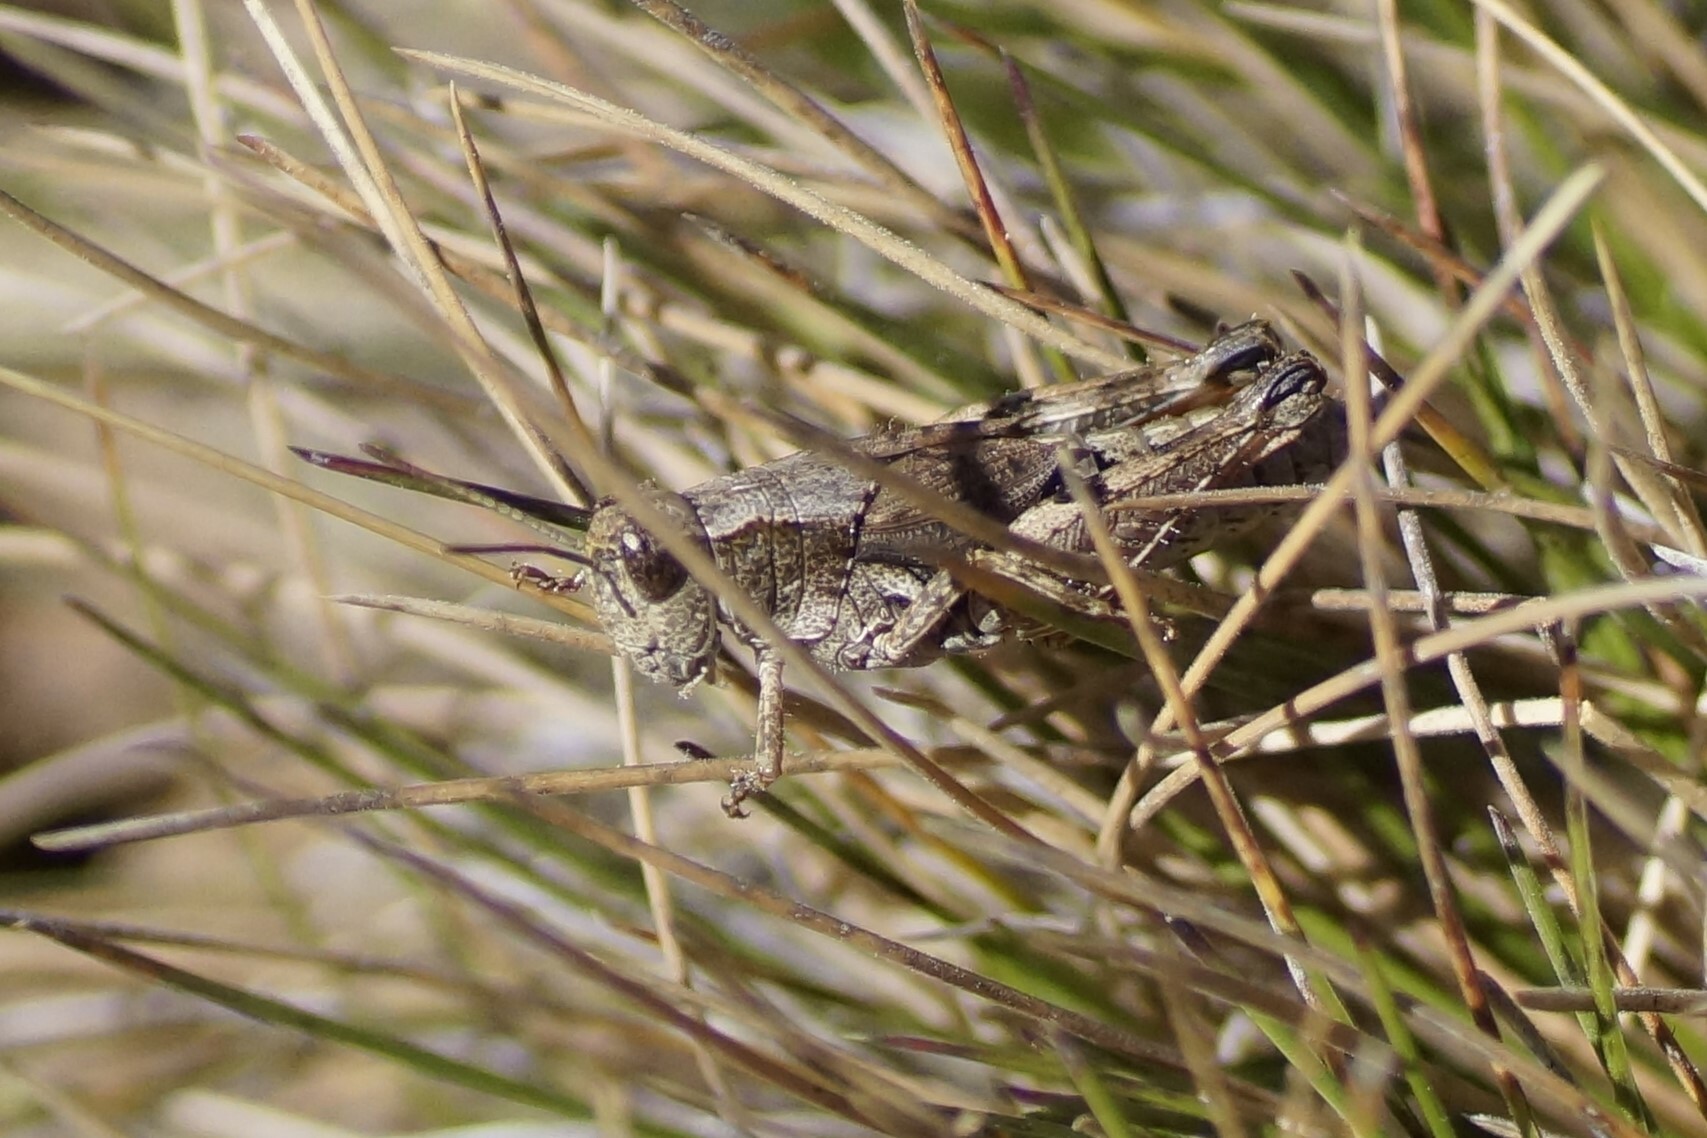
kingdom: Animalia
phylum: Arthropoda
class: Insecta
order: Orthoptera
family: Acrididae
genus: Phaulacridium
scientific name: Phaulacridium vittatum
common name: Wingless grasshopper
